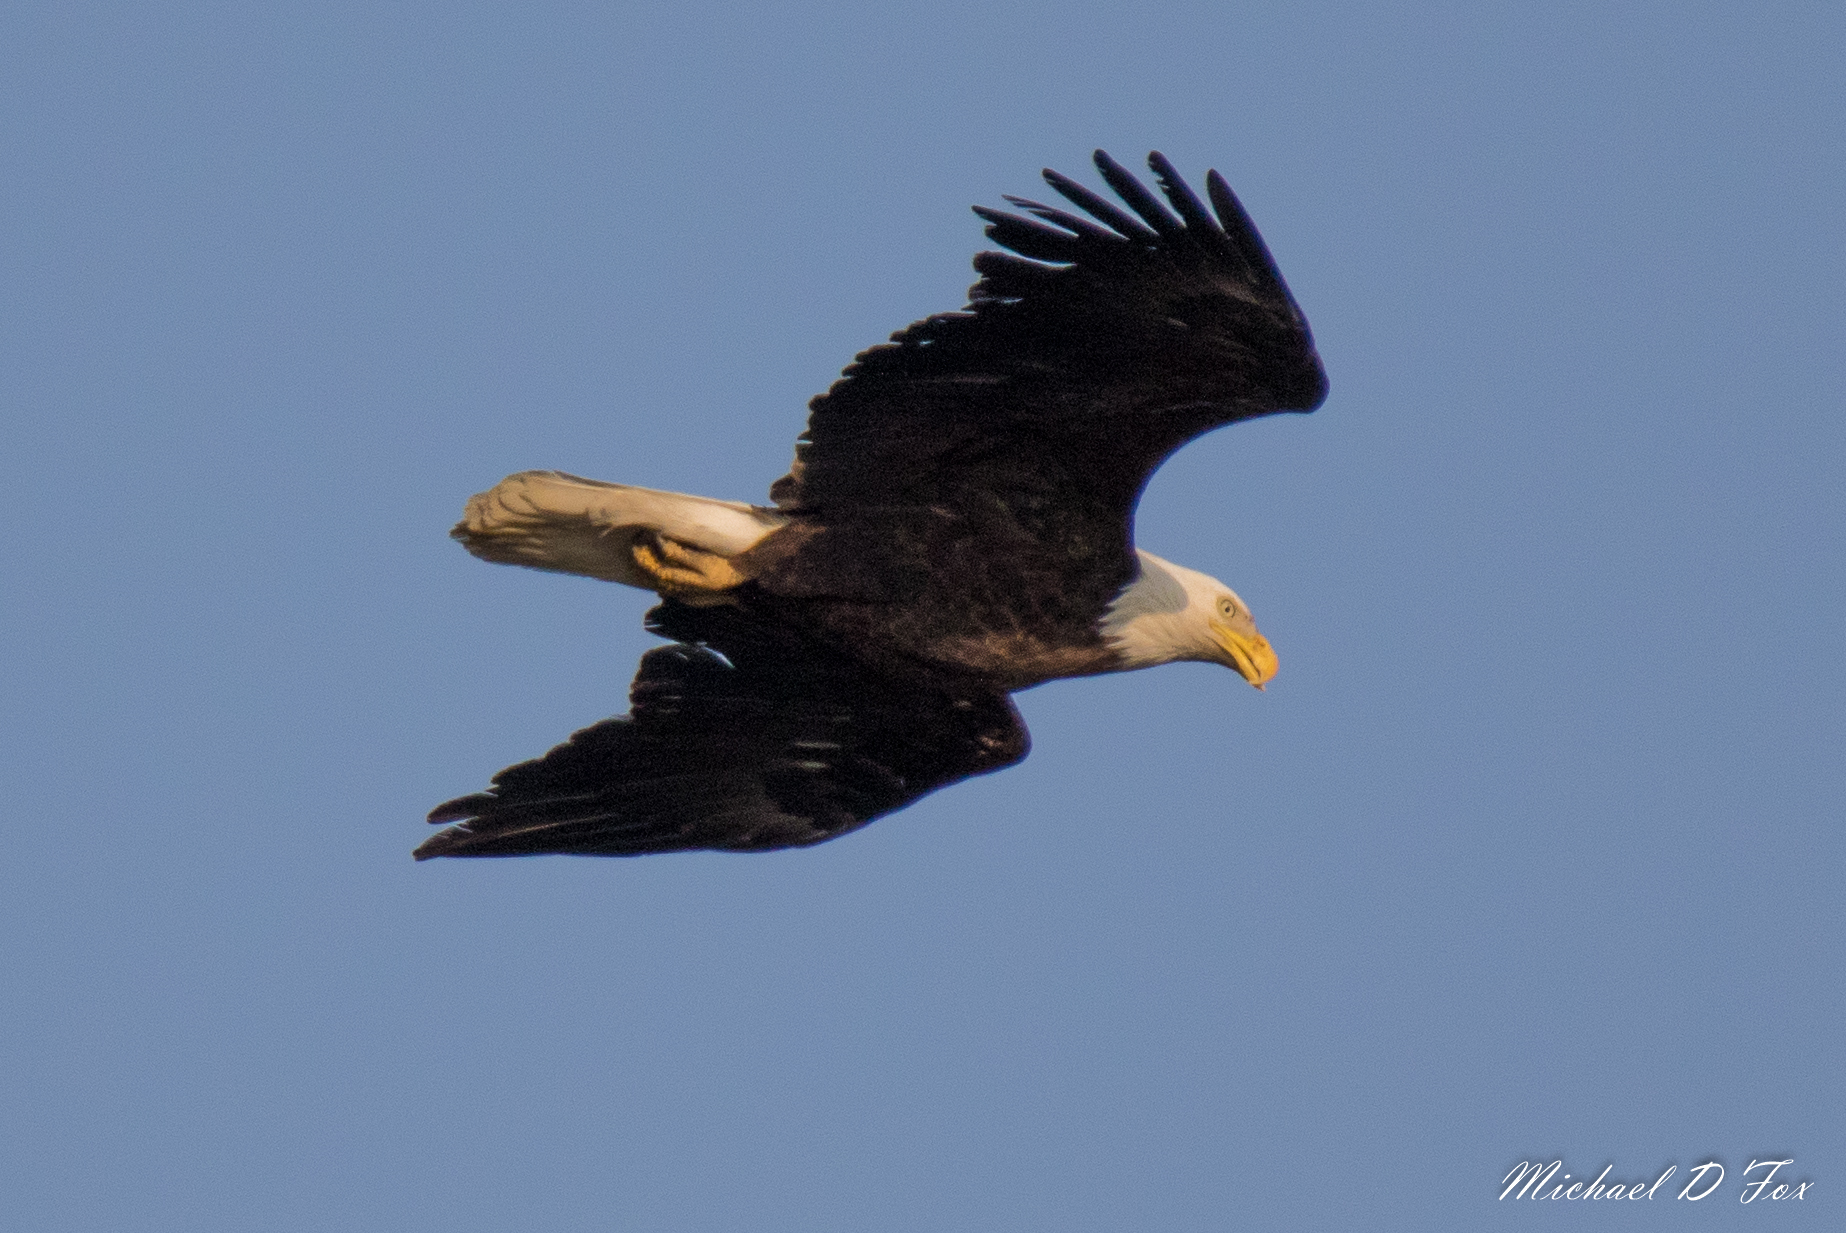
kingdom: Animalia
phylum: Chordata
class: Aves
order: Accipitriformes
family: Accipitridae
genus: Haliaeetus
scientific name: Haliaeetus leucocephalus
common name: Bald eagle
